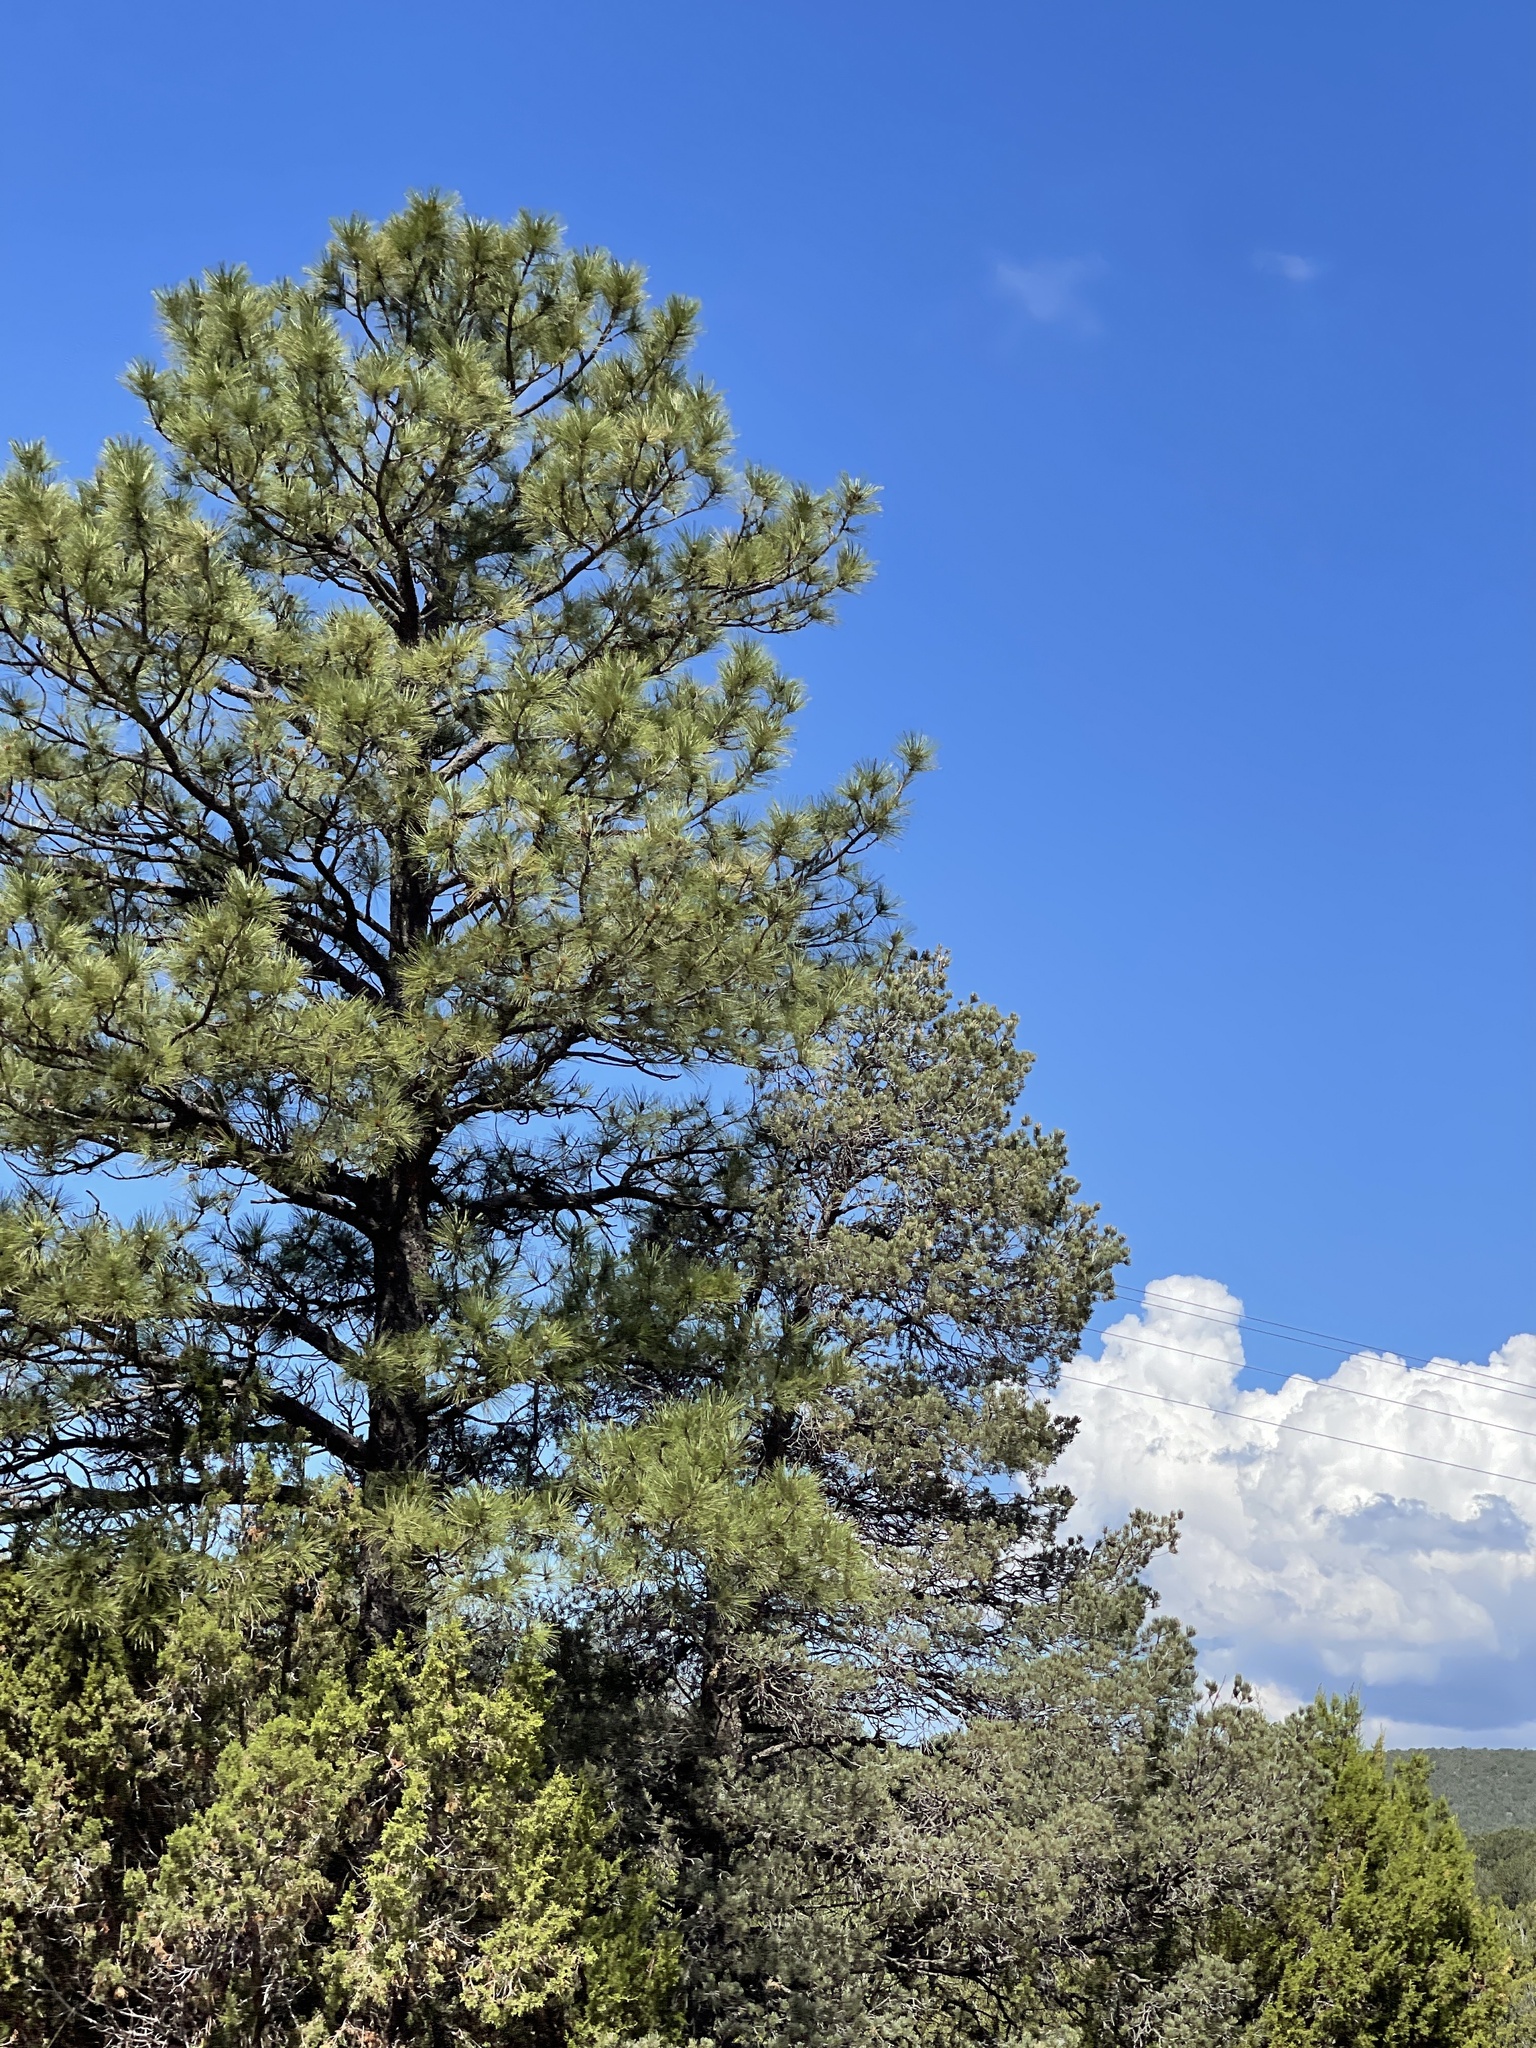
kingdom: Plantae
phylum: Tracheophyta
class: Pinopsida
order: Pinales
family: Pinaceae
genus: Pinus
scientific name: Pinus ponderosa
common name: Western yellow-pine
